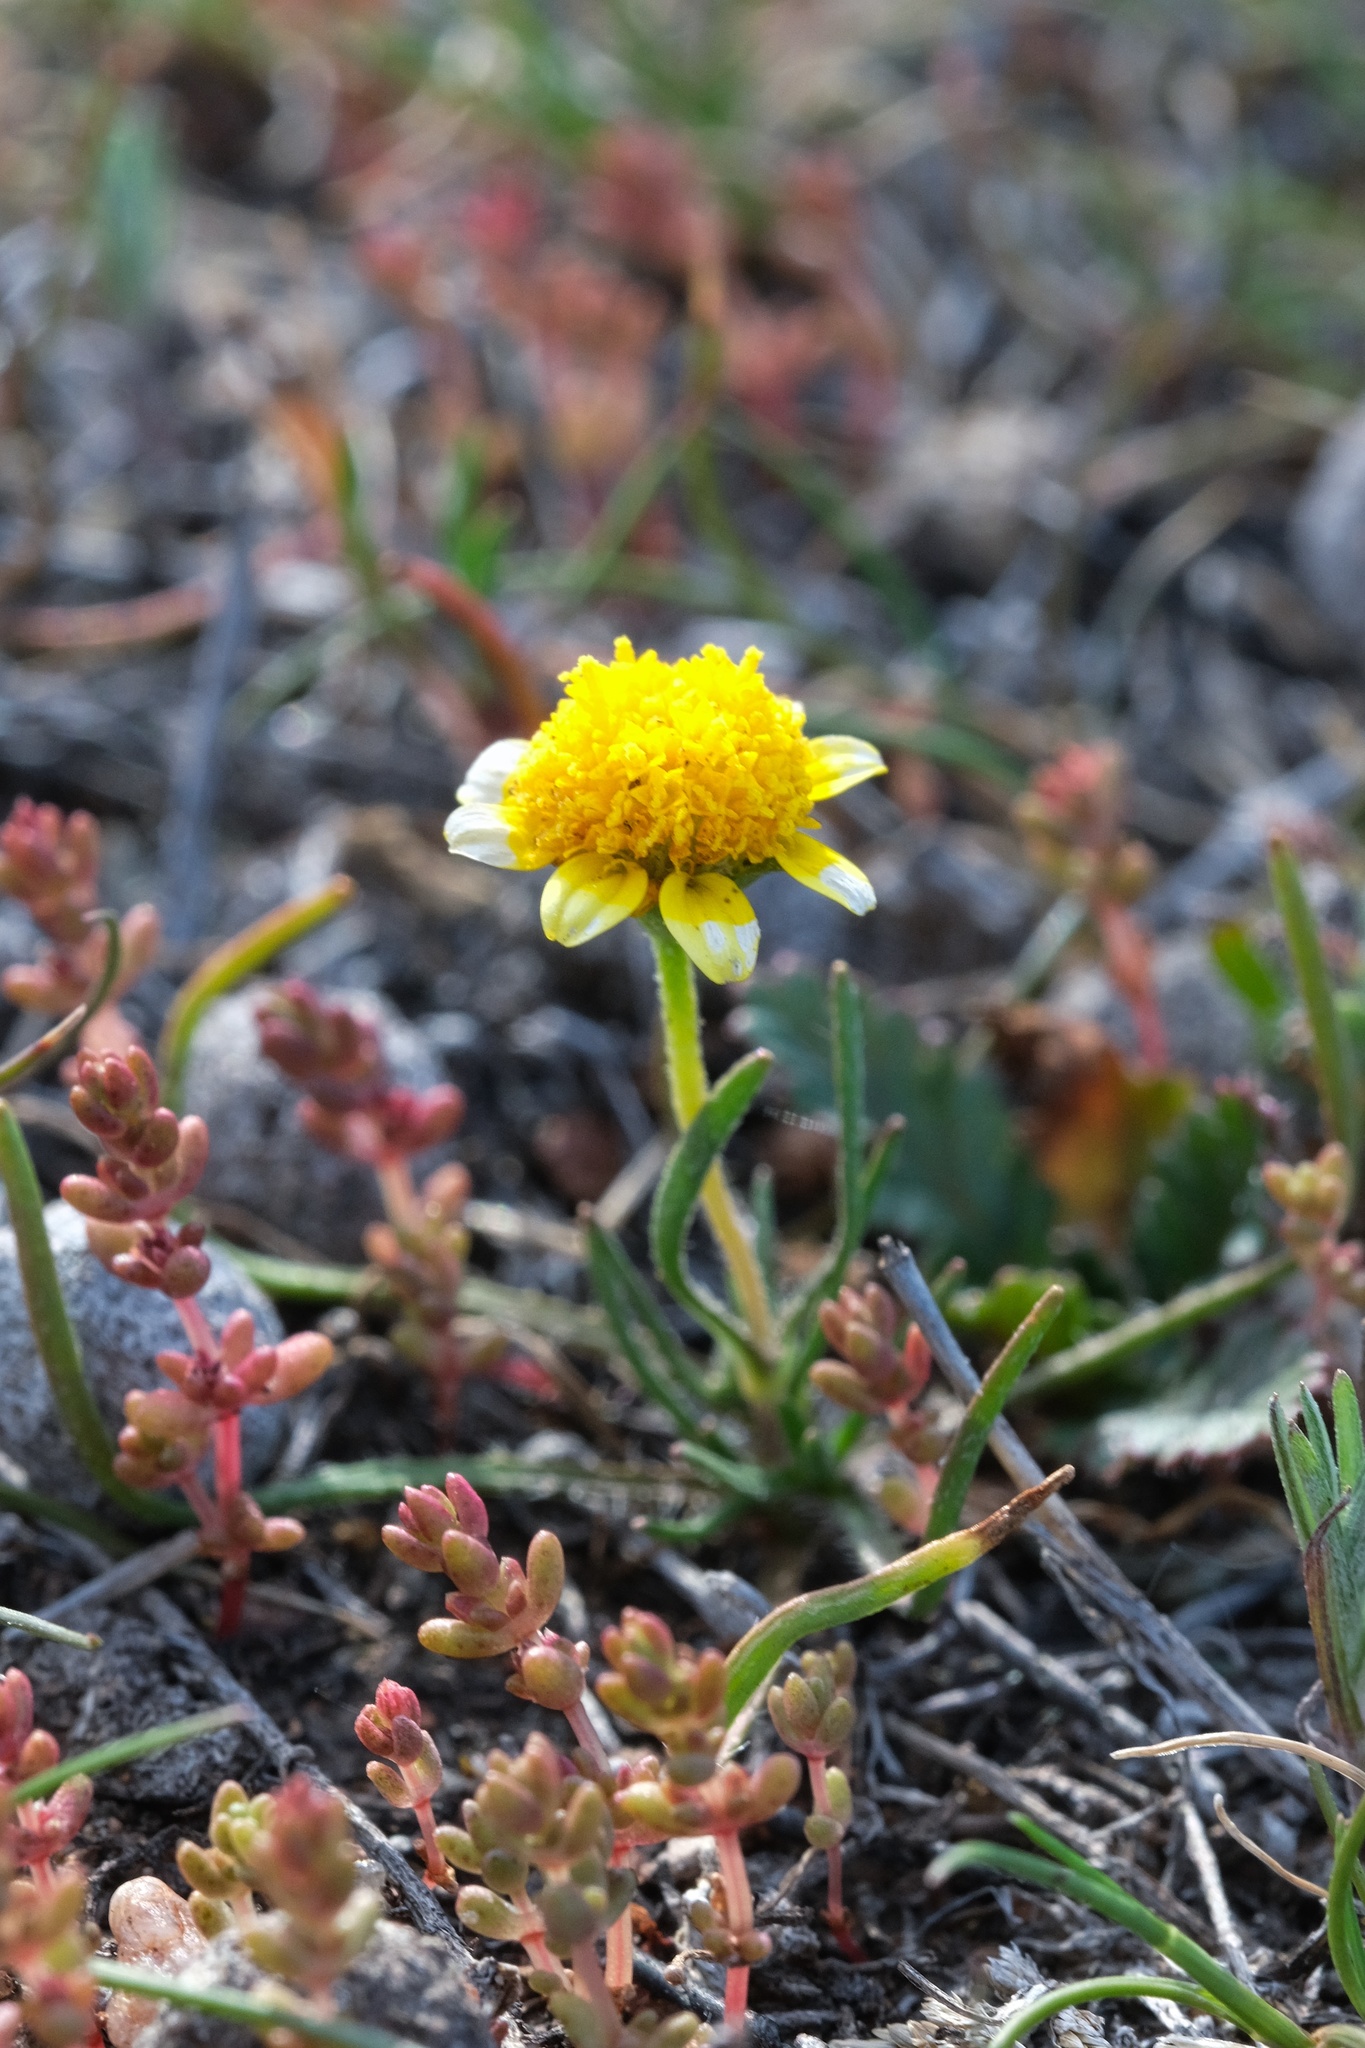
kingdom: Plantae
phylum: Tracheophyta
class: Magnoliopsida
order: Asterales
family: Asteraceae
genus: Lasthenia
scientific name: Lasthenia gracilis
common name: Common goldfields
